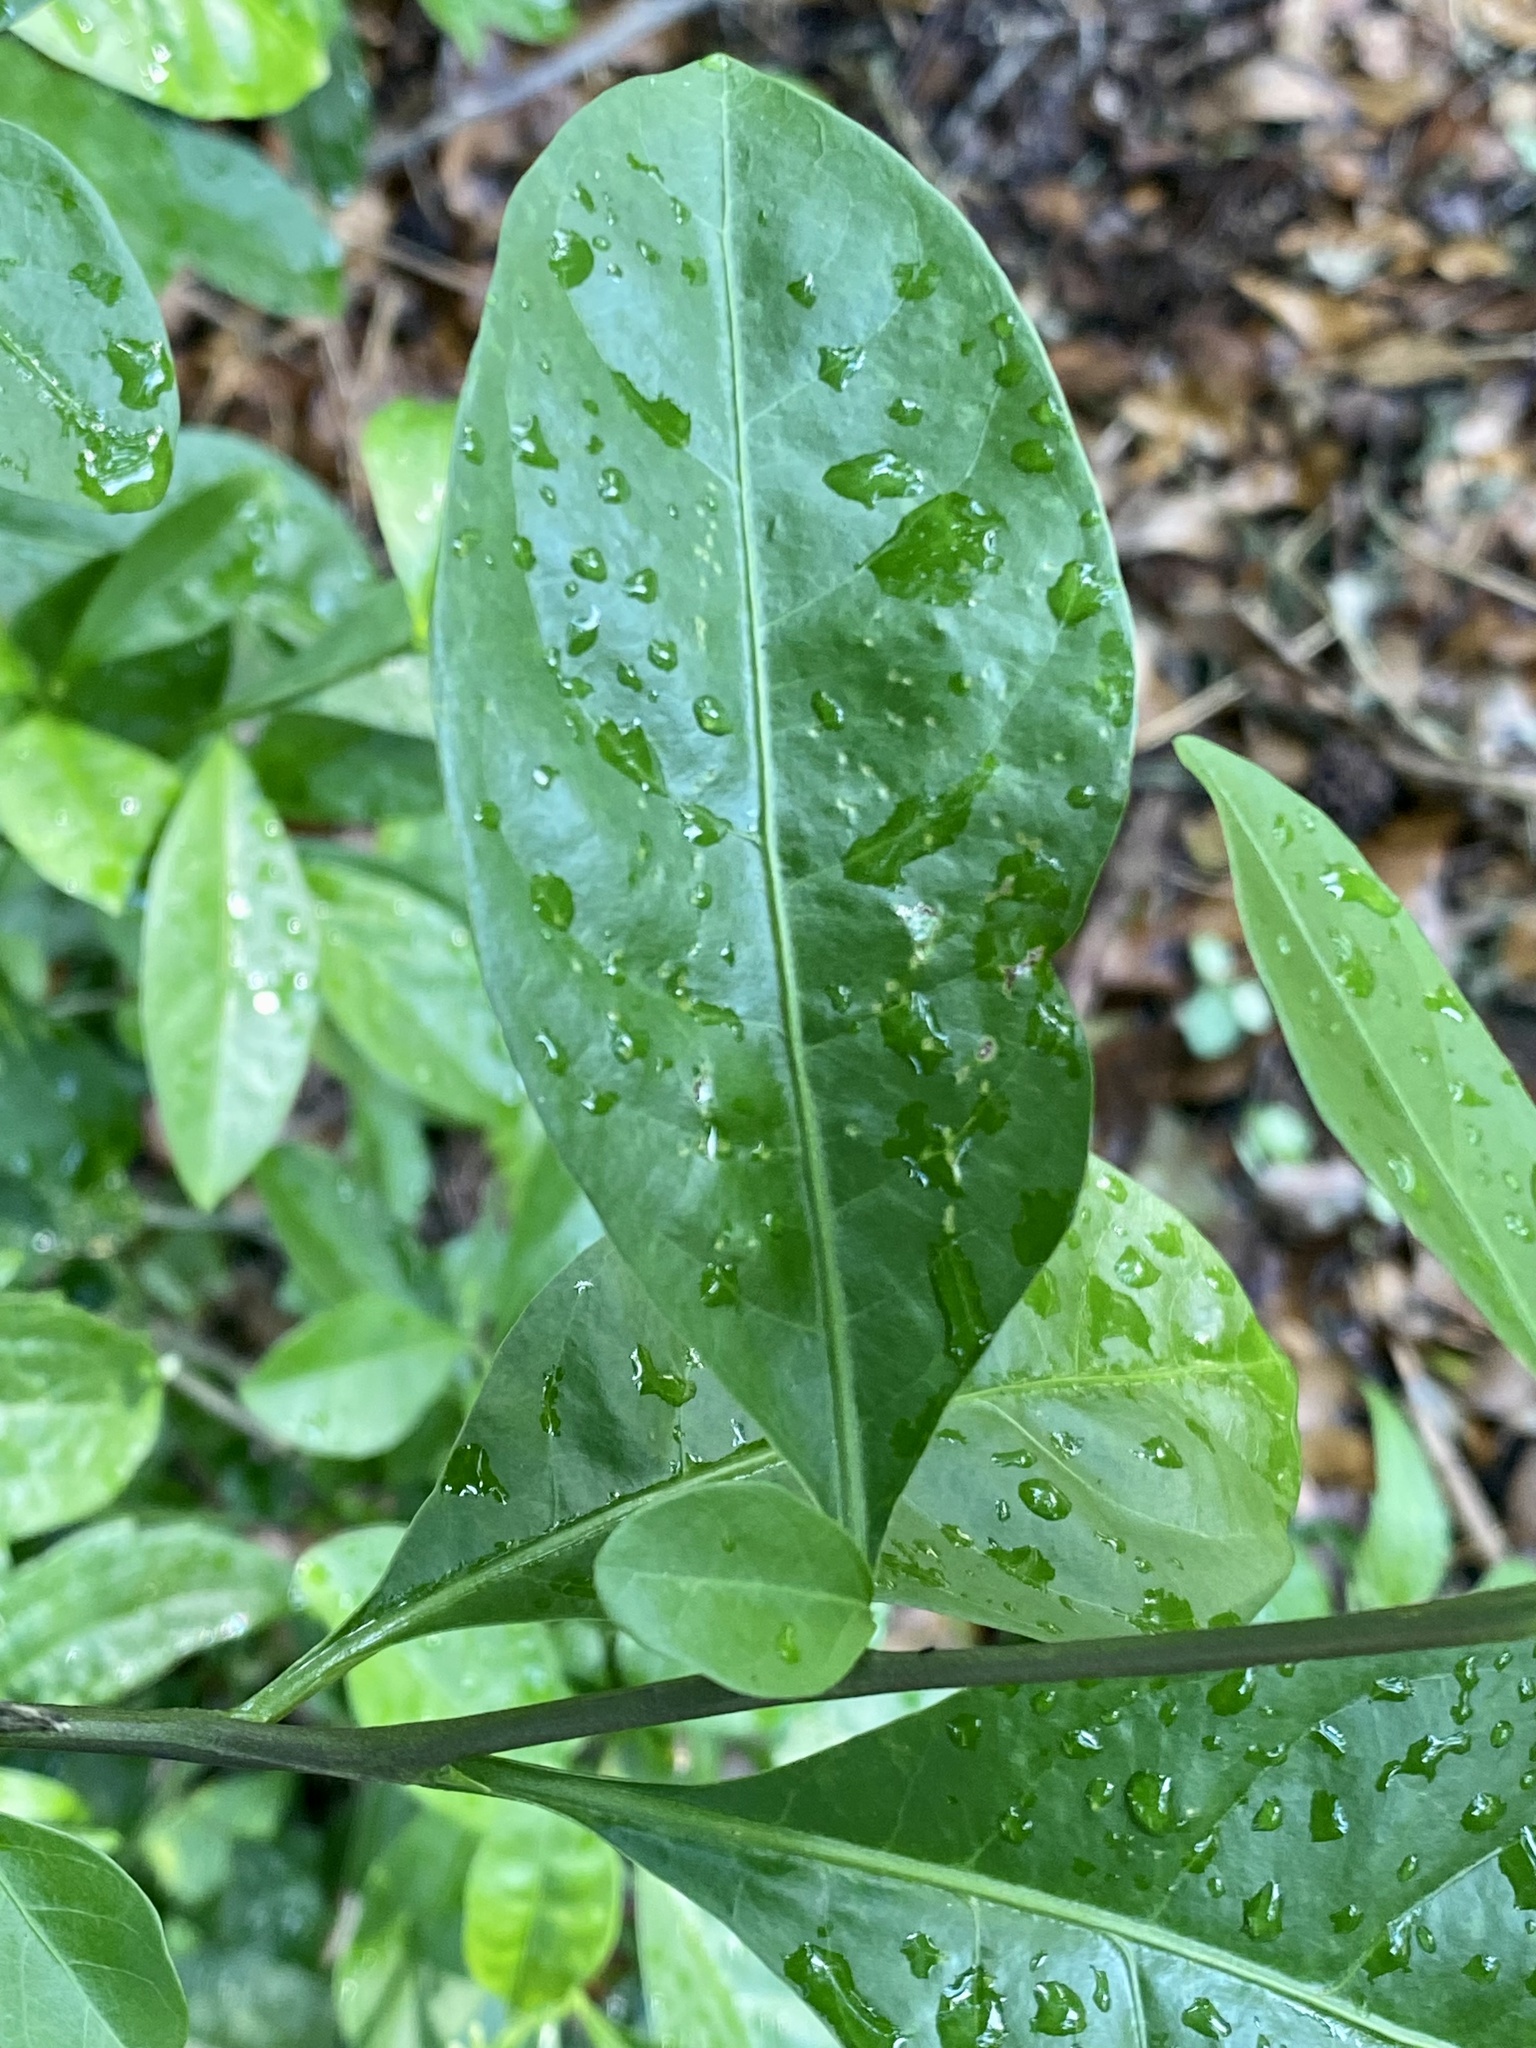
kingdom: Plantae
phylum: Tracheophyta
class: Magnoliopsida
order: Solanales
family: Solanaceae
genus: Solanum
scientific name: Solanum diphyllum
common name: Twoleaf nightshade
